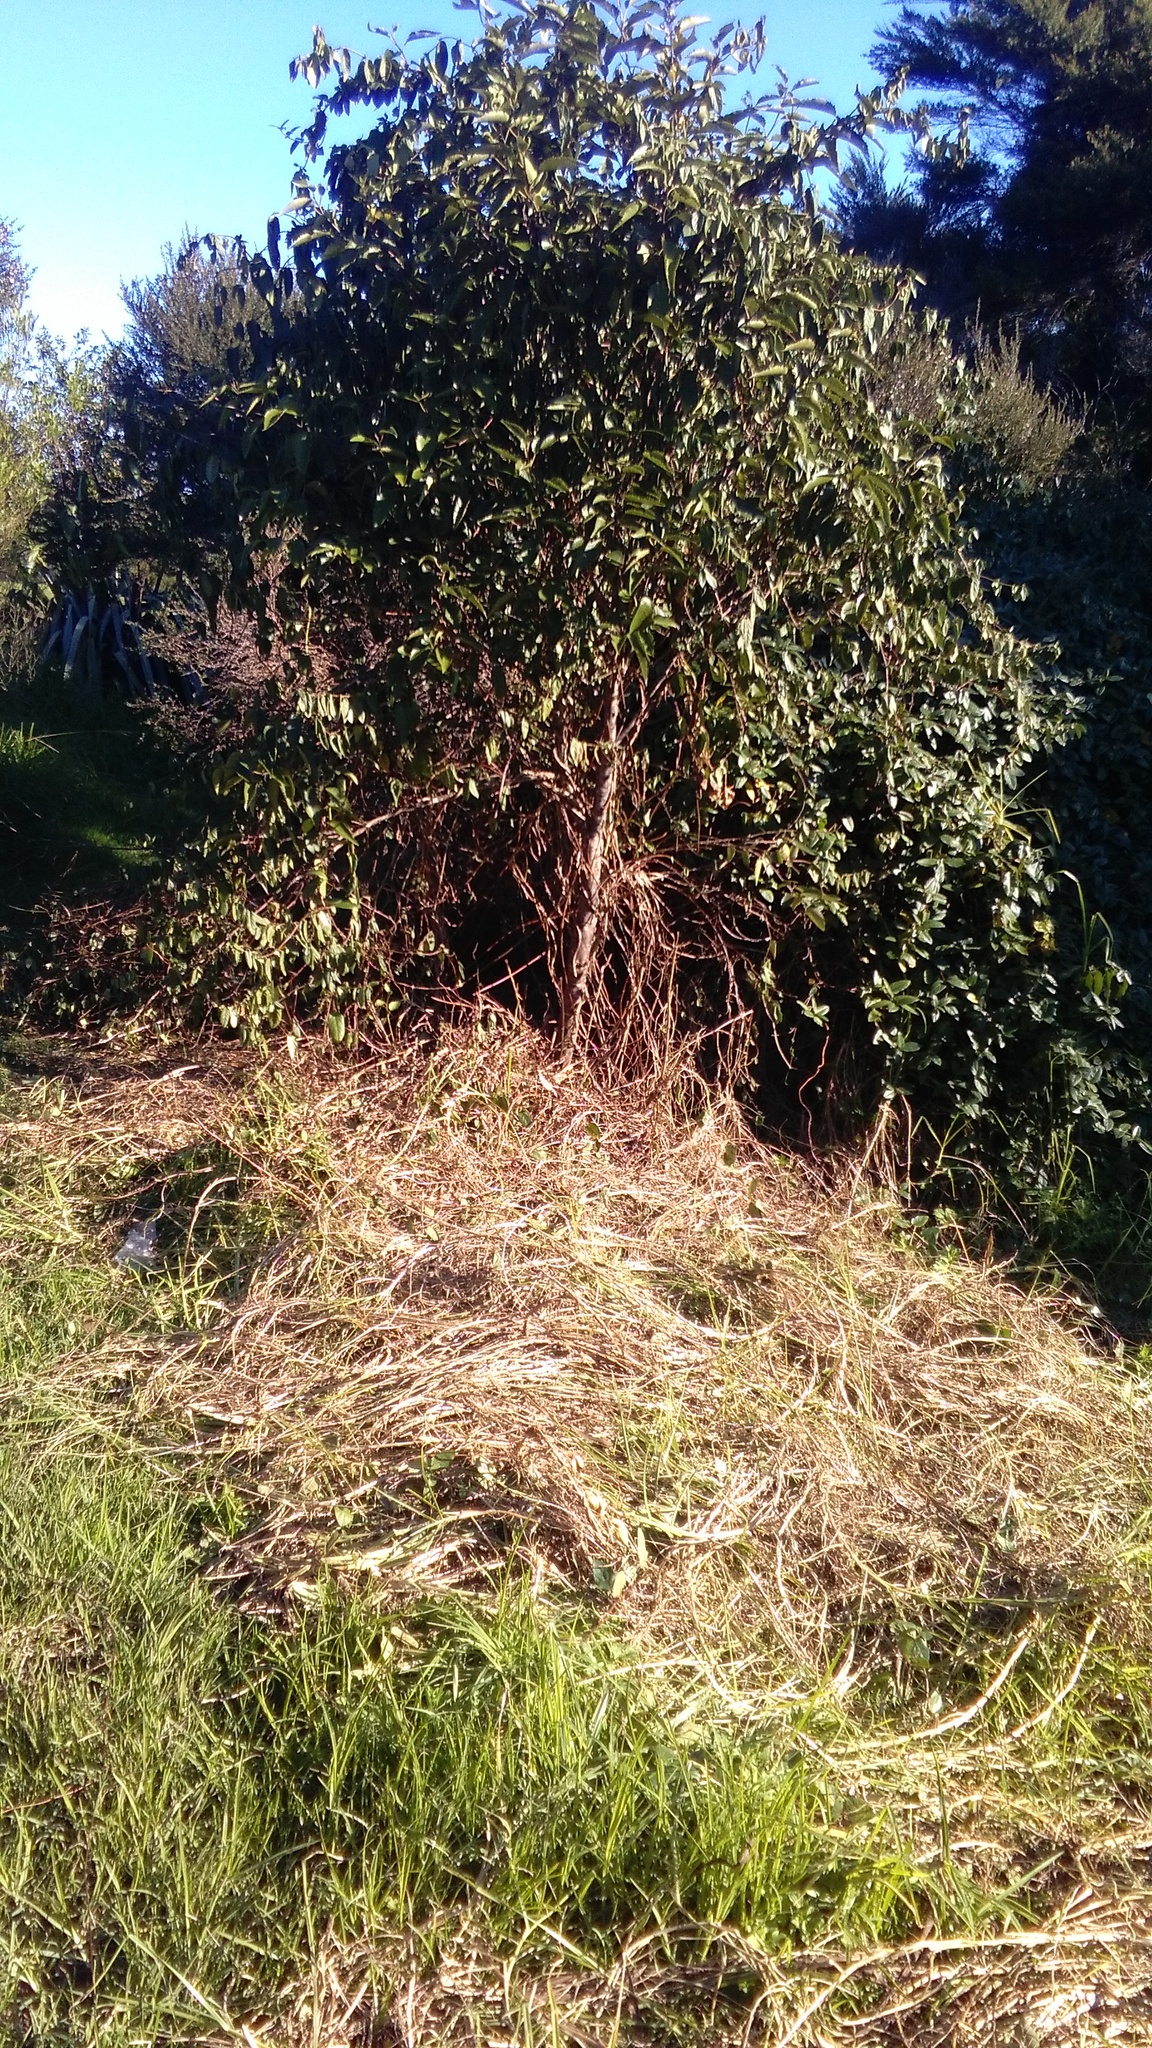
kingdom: Plantae
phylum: Tracheophyta
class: Liliopsida
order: Poales
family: Poaceae
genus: Cenchrus
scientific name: Cenchrus clandestinus
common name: Kikuyugrass
